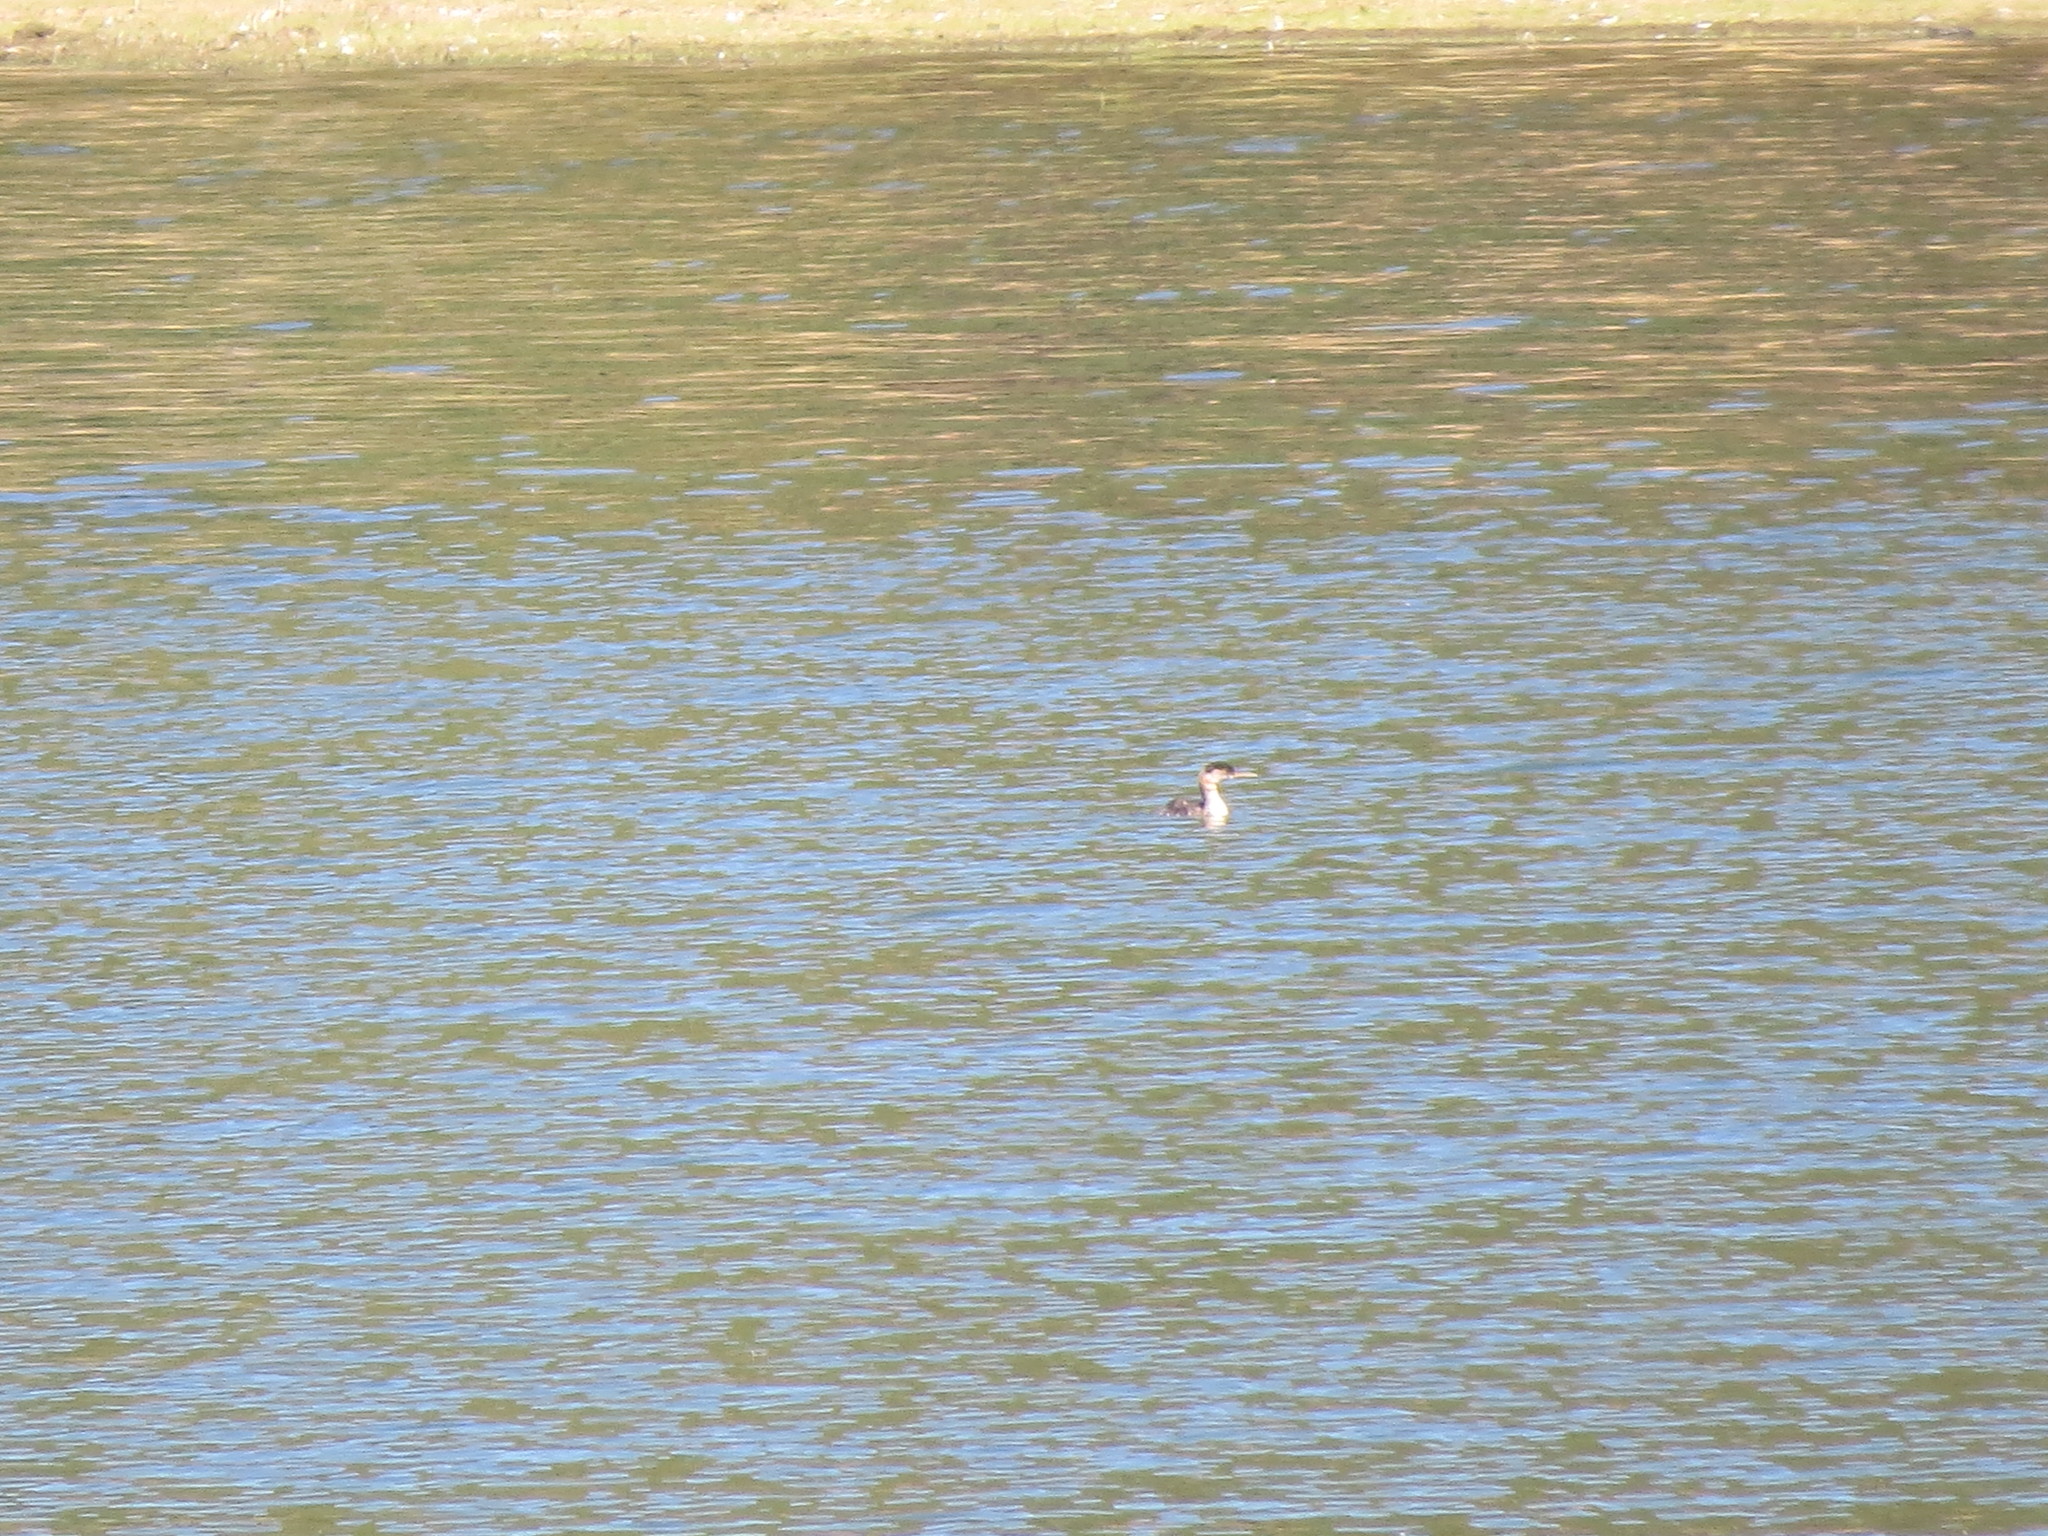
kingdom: Animalia
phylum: Chordata
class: Aves
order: Podicipediformes
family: Podicipedidae
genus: Podiceps
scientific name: Podiceps grisegena
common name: Red-necked grebe
